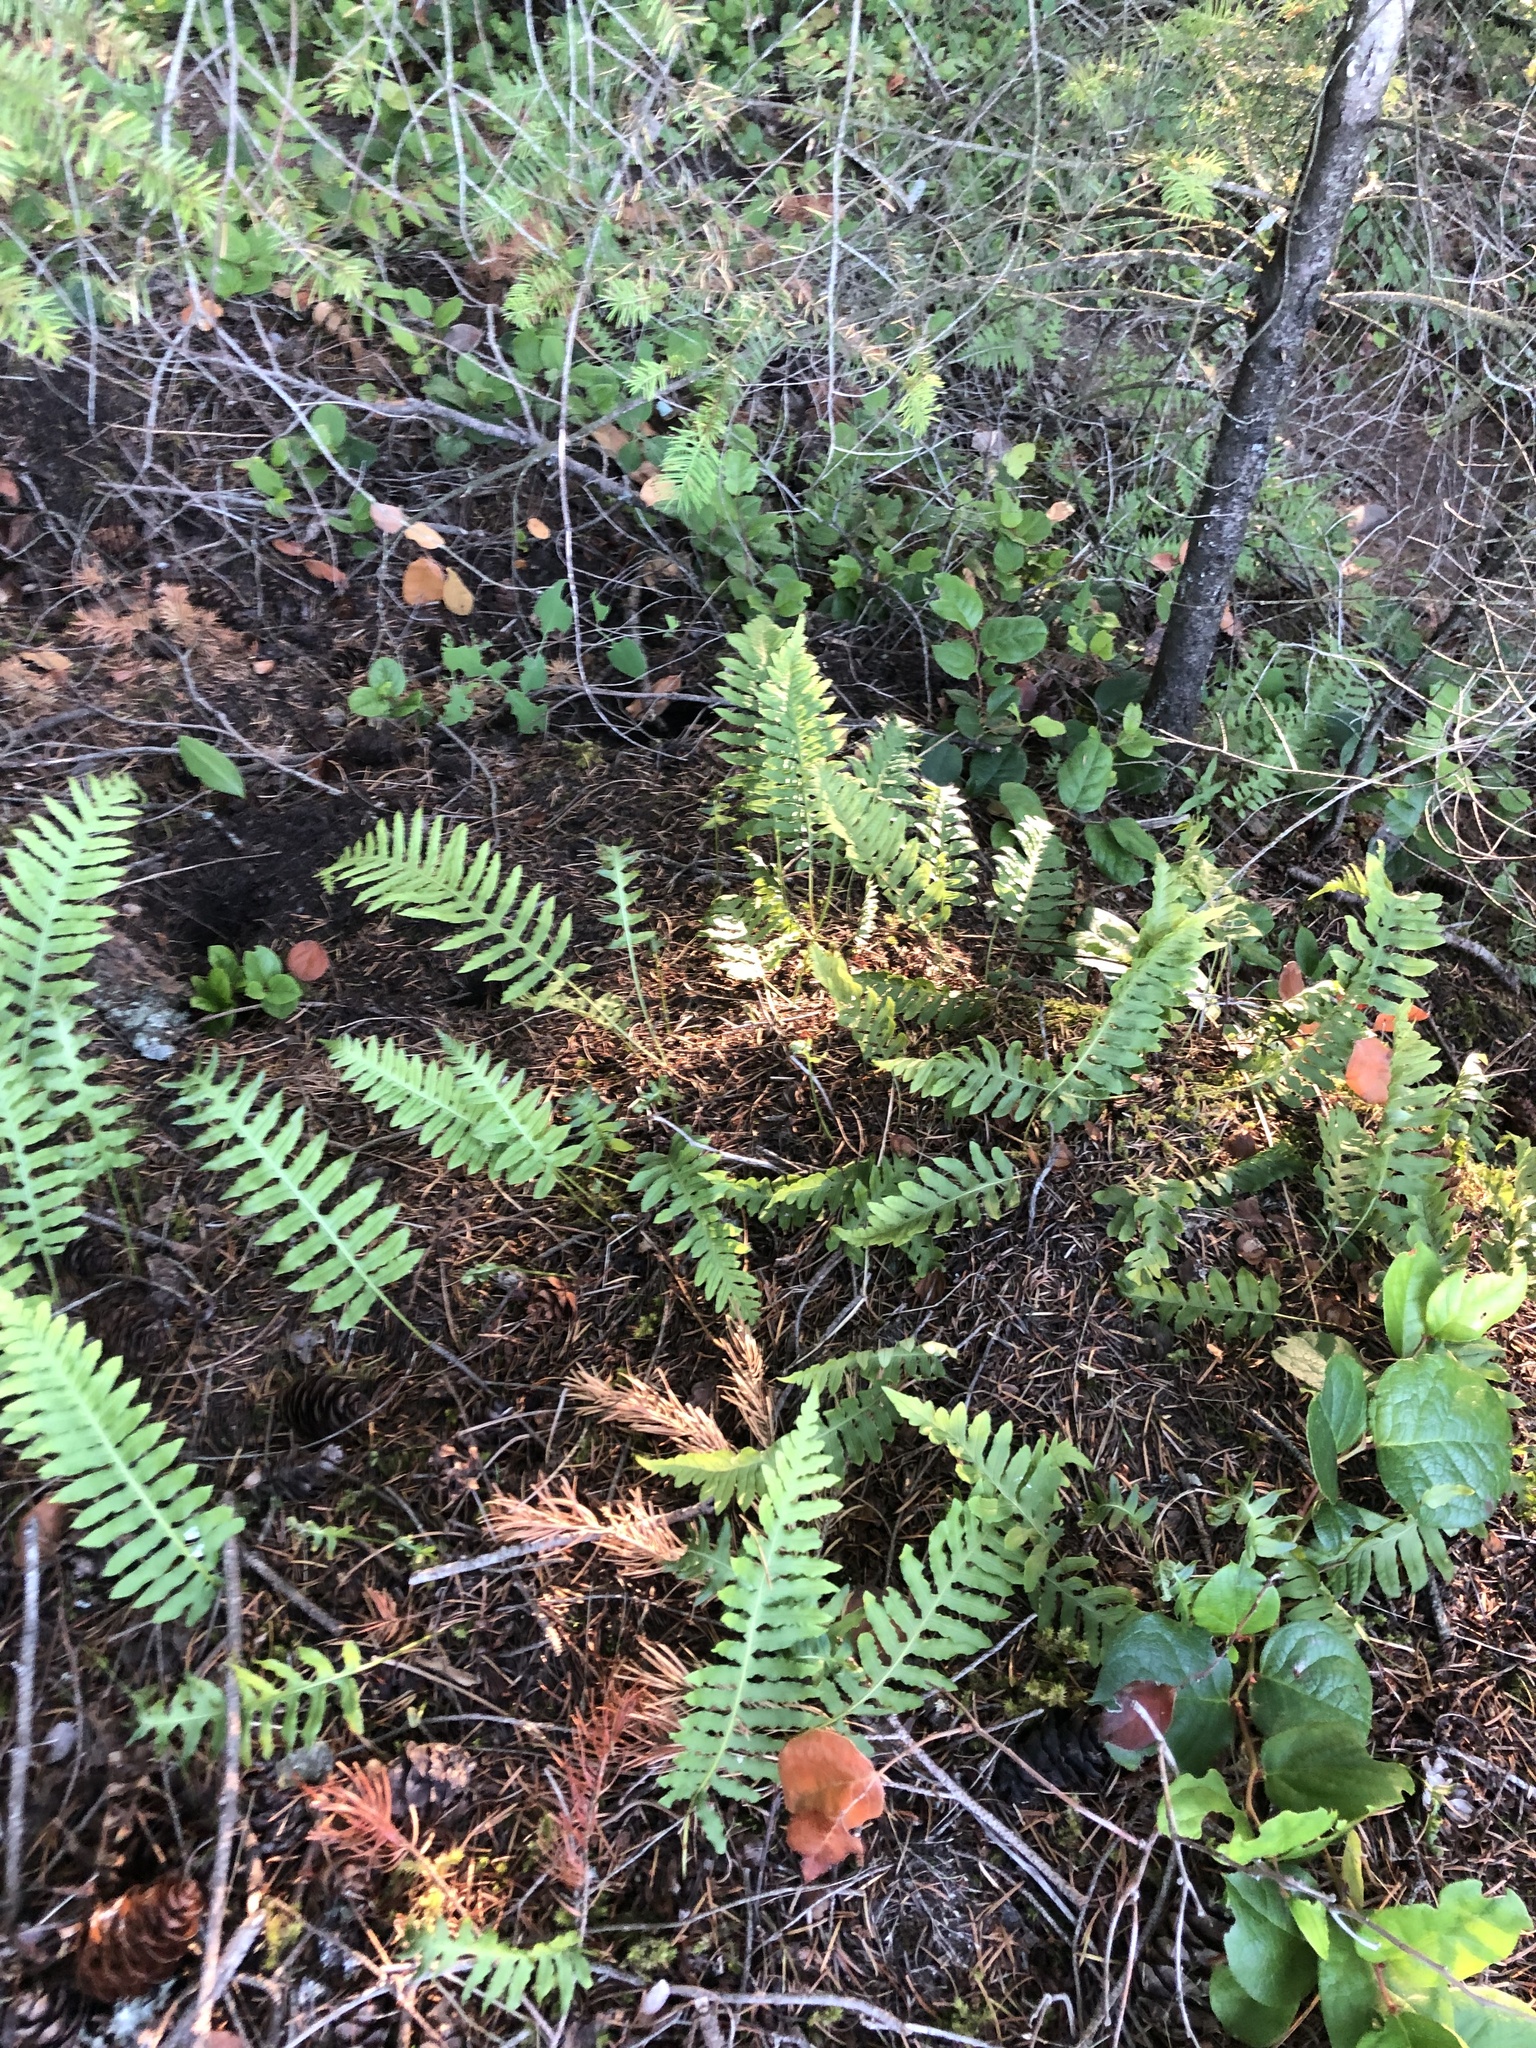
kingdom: Plantae
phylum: Tracheophyta
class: Polypodiopsida
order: Polypodiales
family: Polypodiaceae
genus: Polypodium
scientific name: Polypodium glycyrrhiza
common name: Licorice fern
